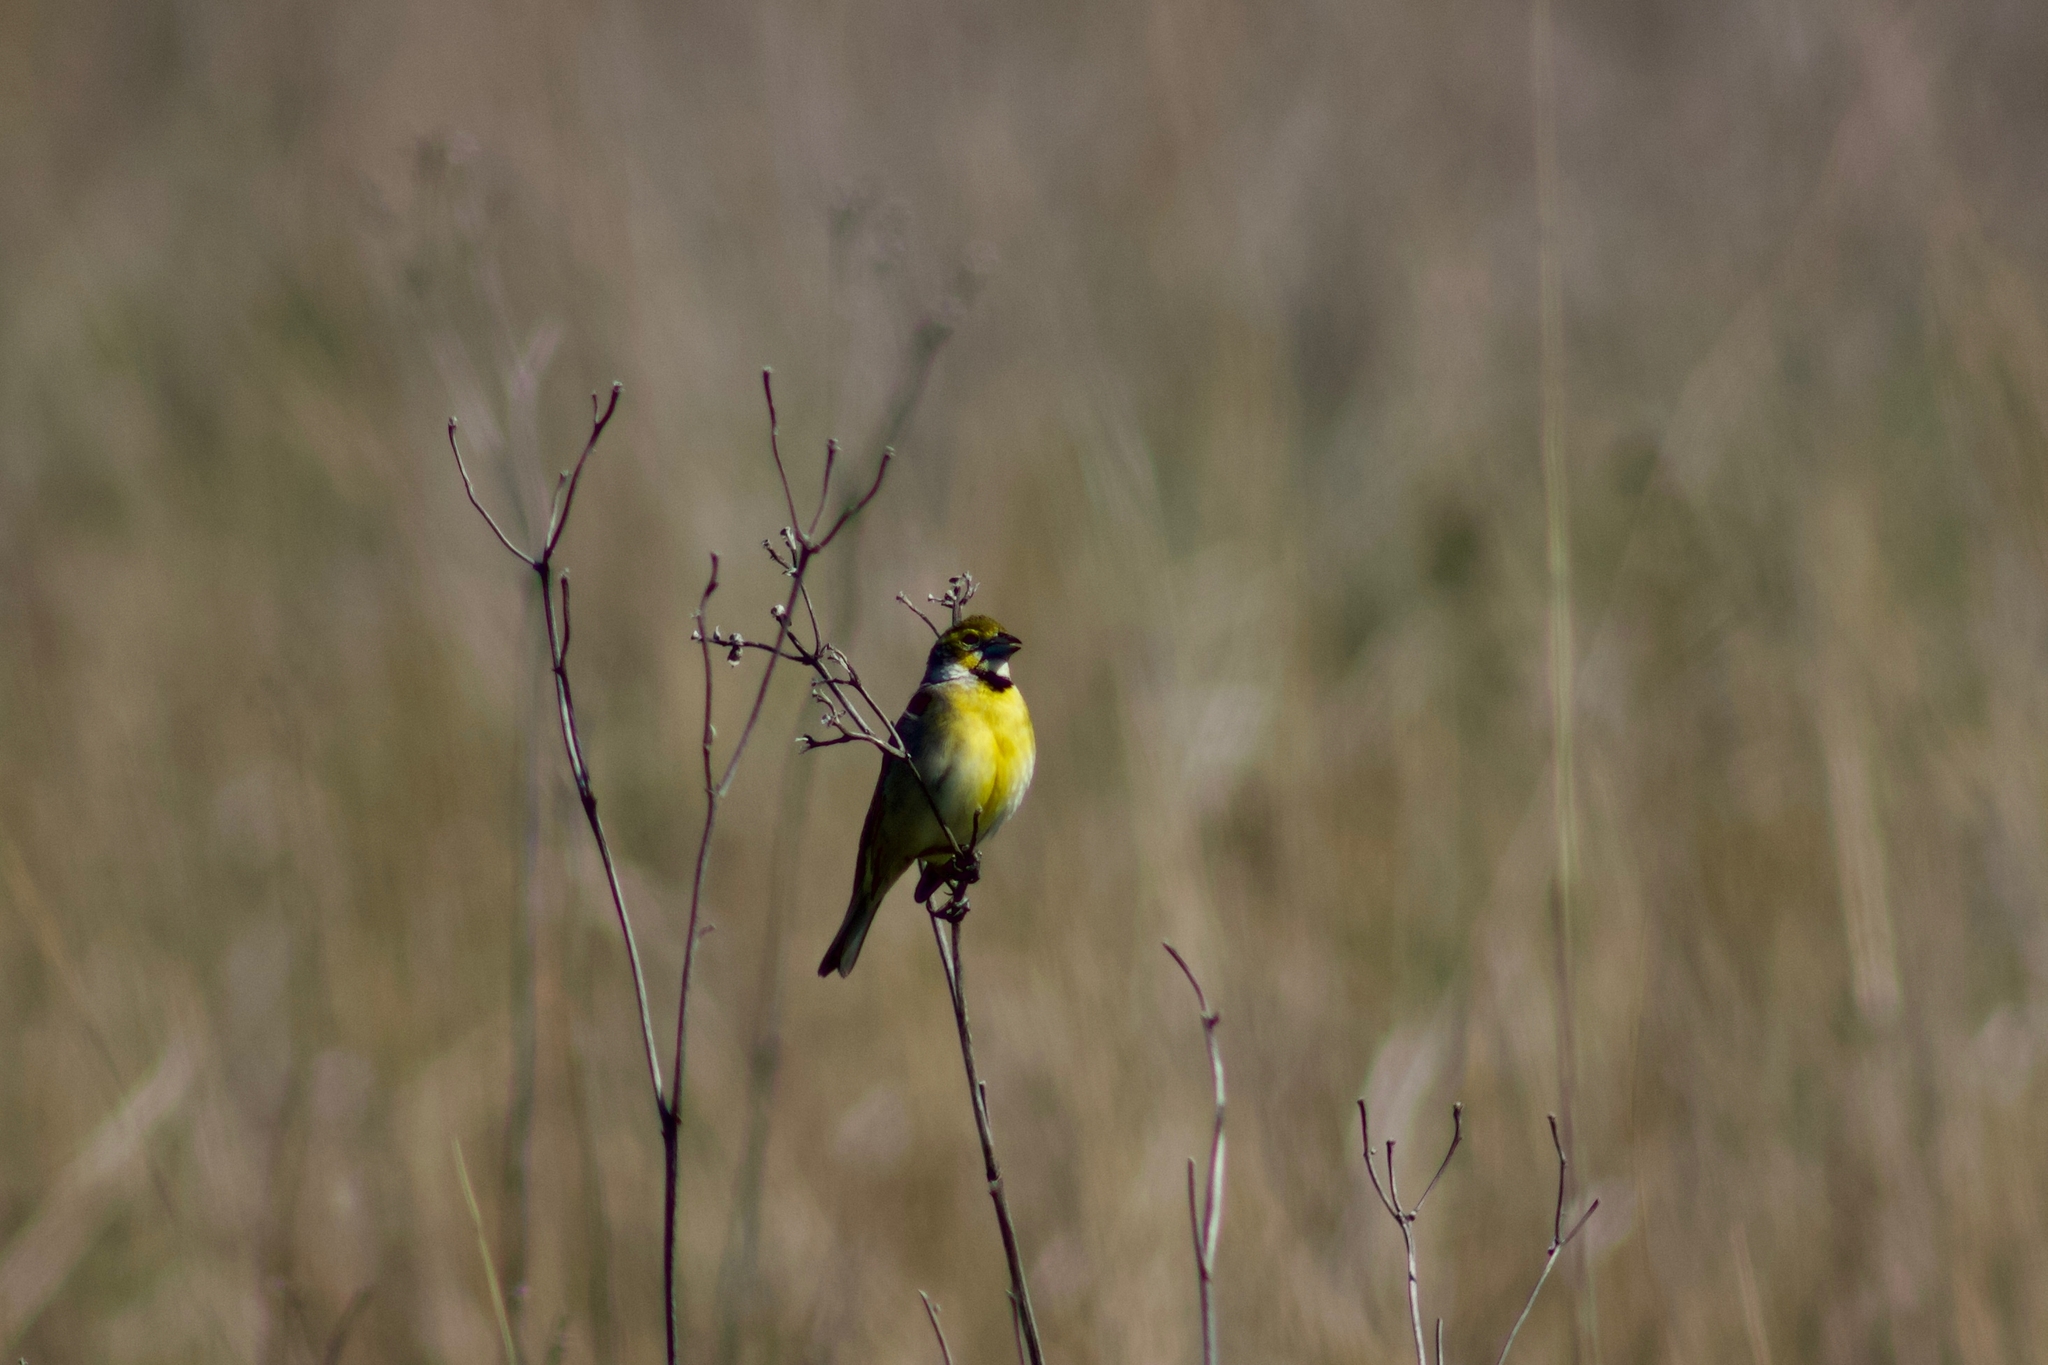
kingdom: Animalia
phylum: Chordata
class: Aves
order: Passeriformes
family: Cardinalidae
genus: Spiza
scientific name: Spiza americana
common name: Dickcissel
